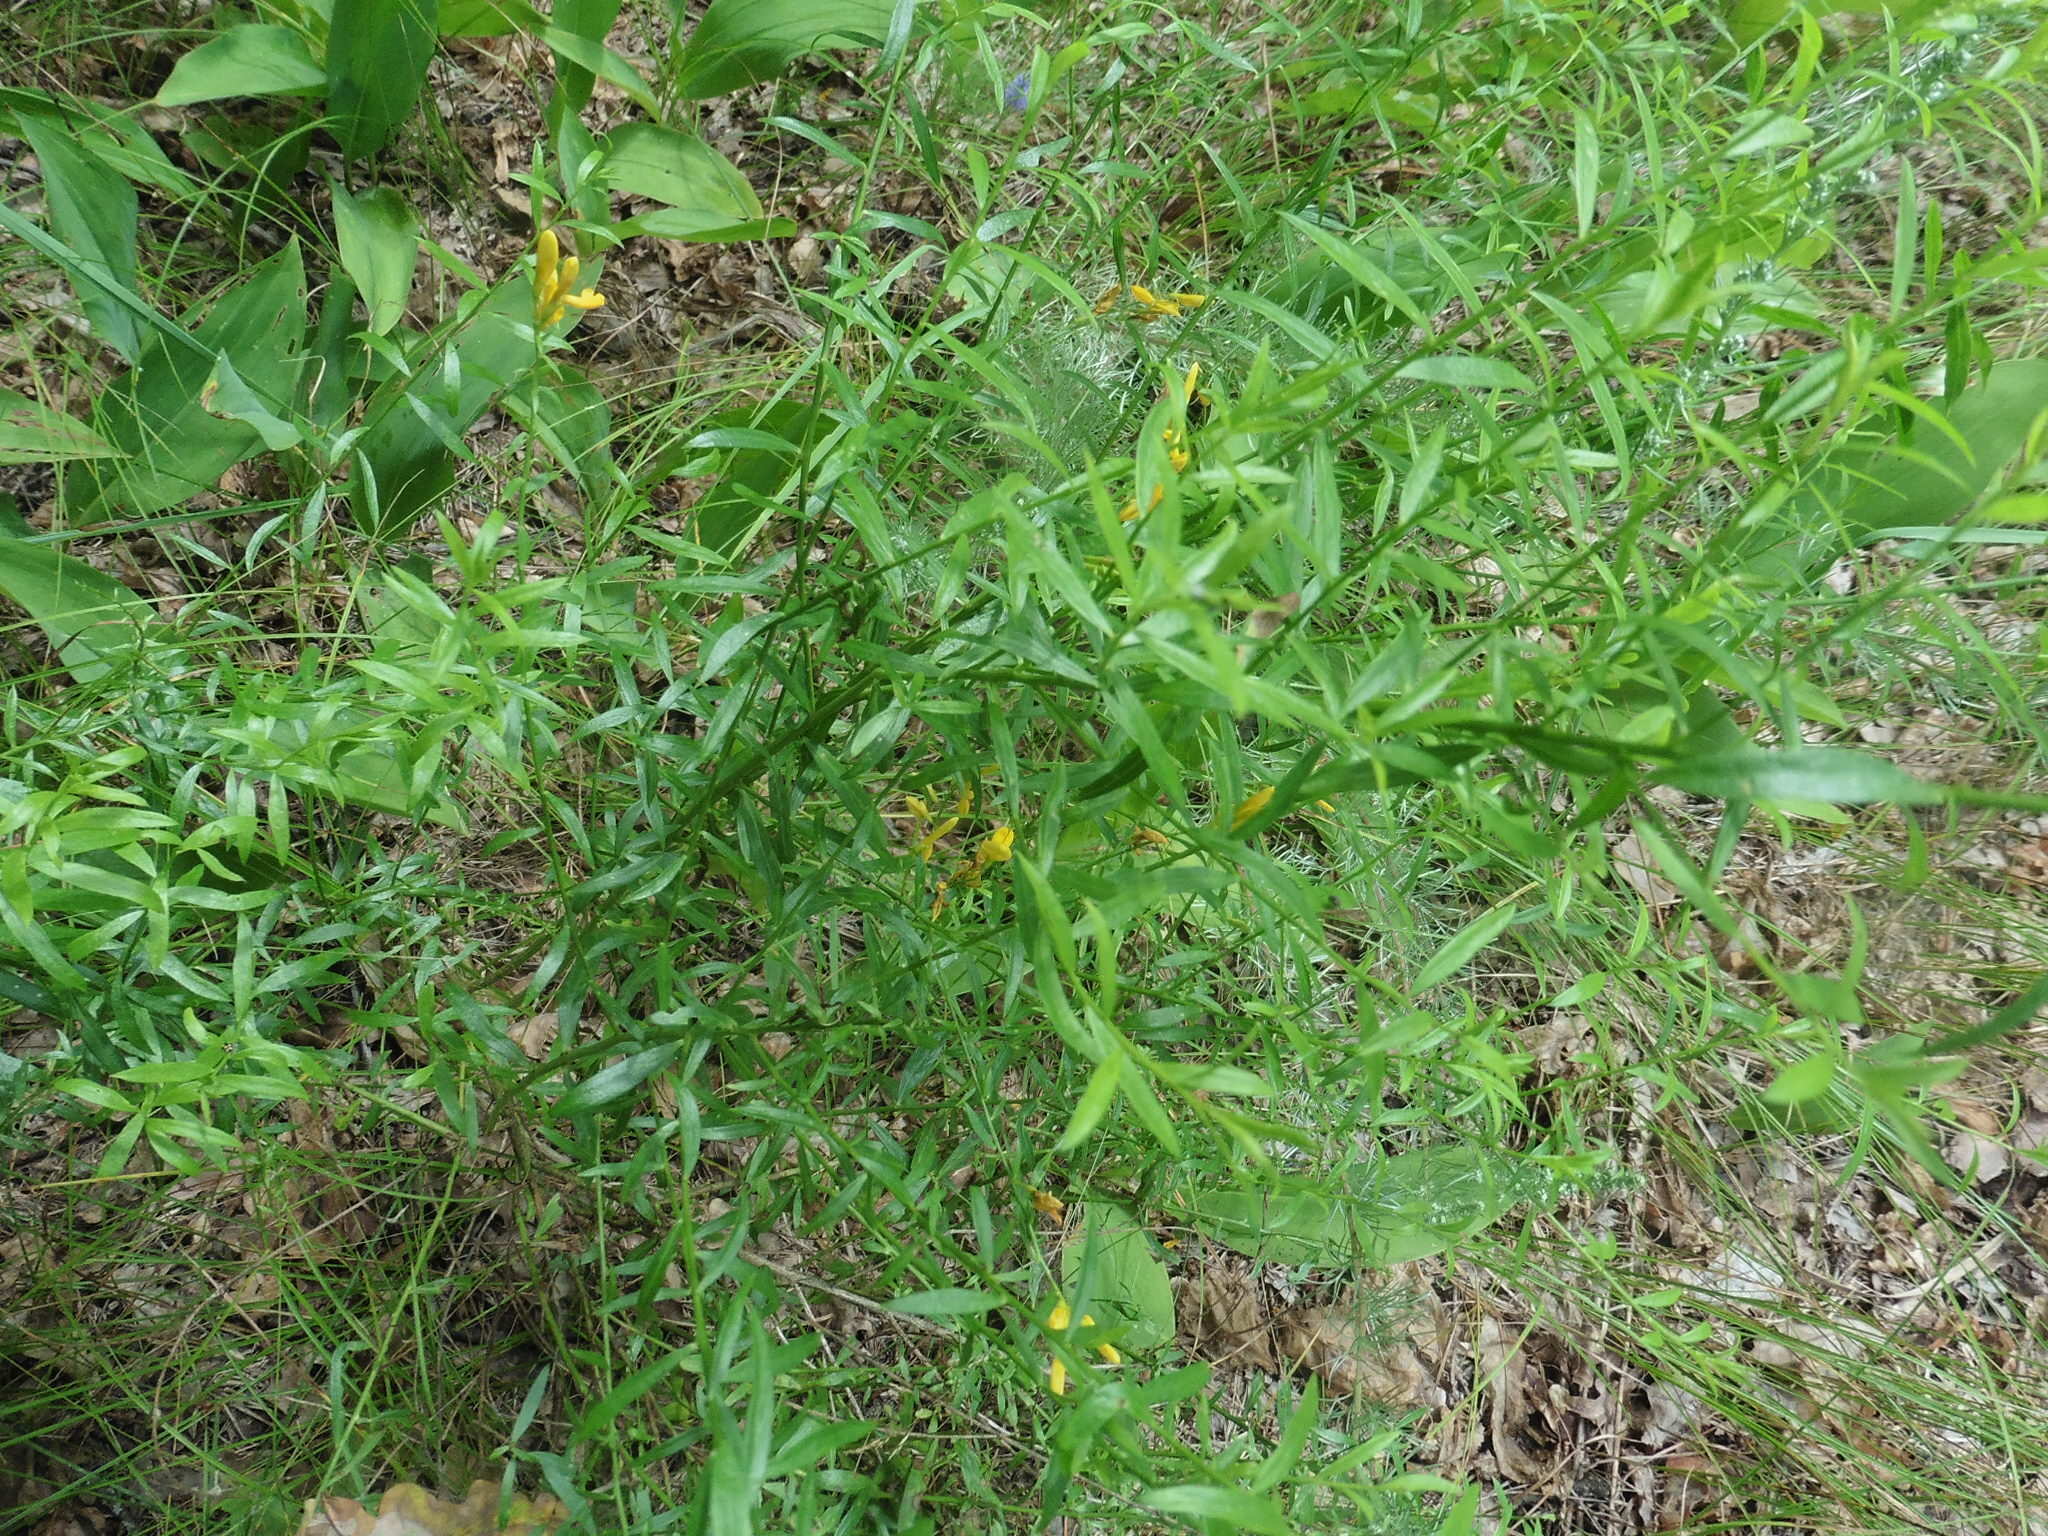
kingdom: Plantae
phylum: Tracheophyta
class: Magnoliopsida
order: Fabales
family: Fabaceae
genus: Genista
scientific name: Genista tinctoria
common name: Dyer's greenweed
